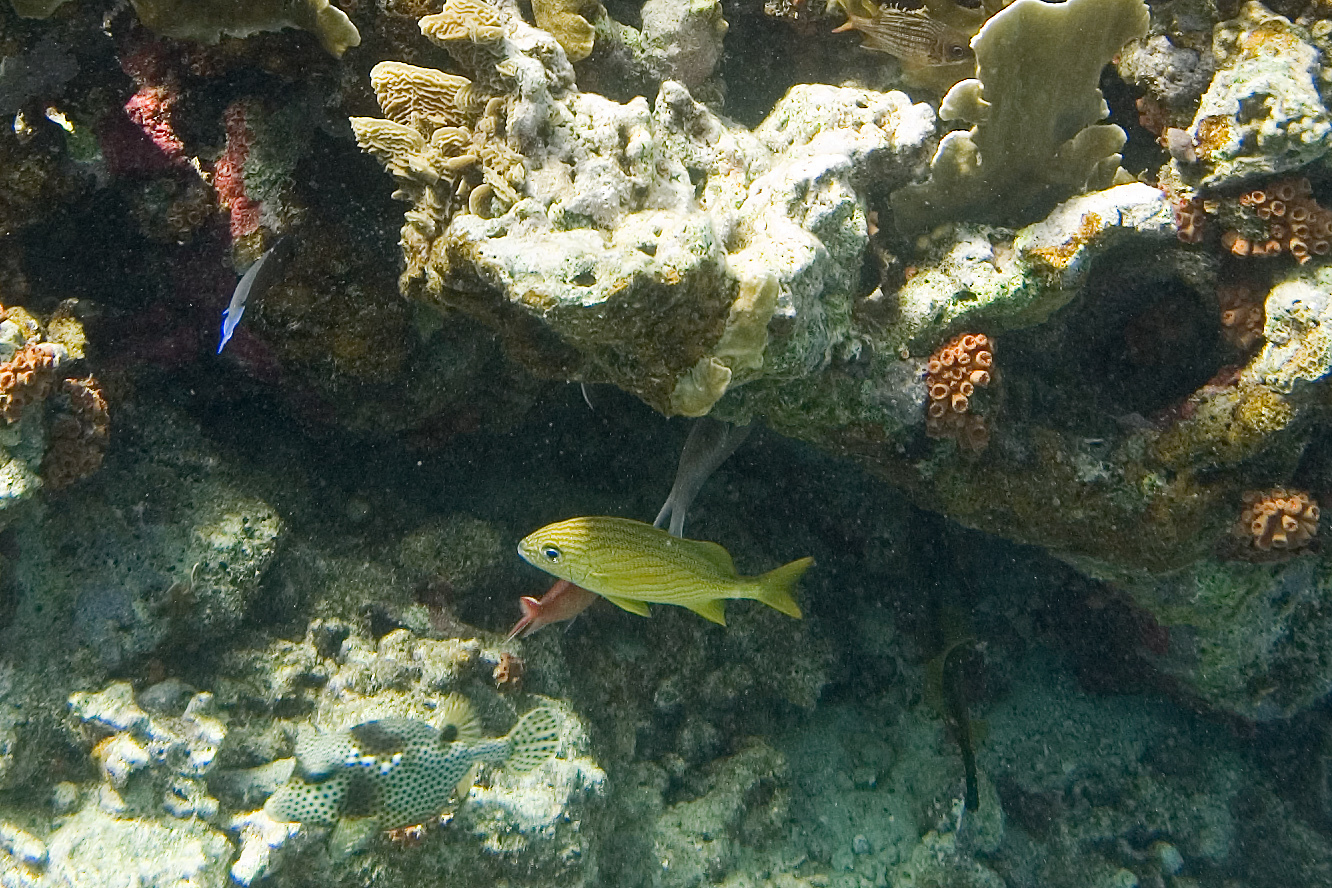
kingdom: Animalia
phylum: Chordata
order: Perciformes
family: Haemulidae
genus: Haemulon
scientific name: Haemulon flavolineatum
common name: French grunt
